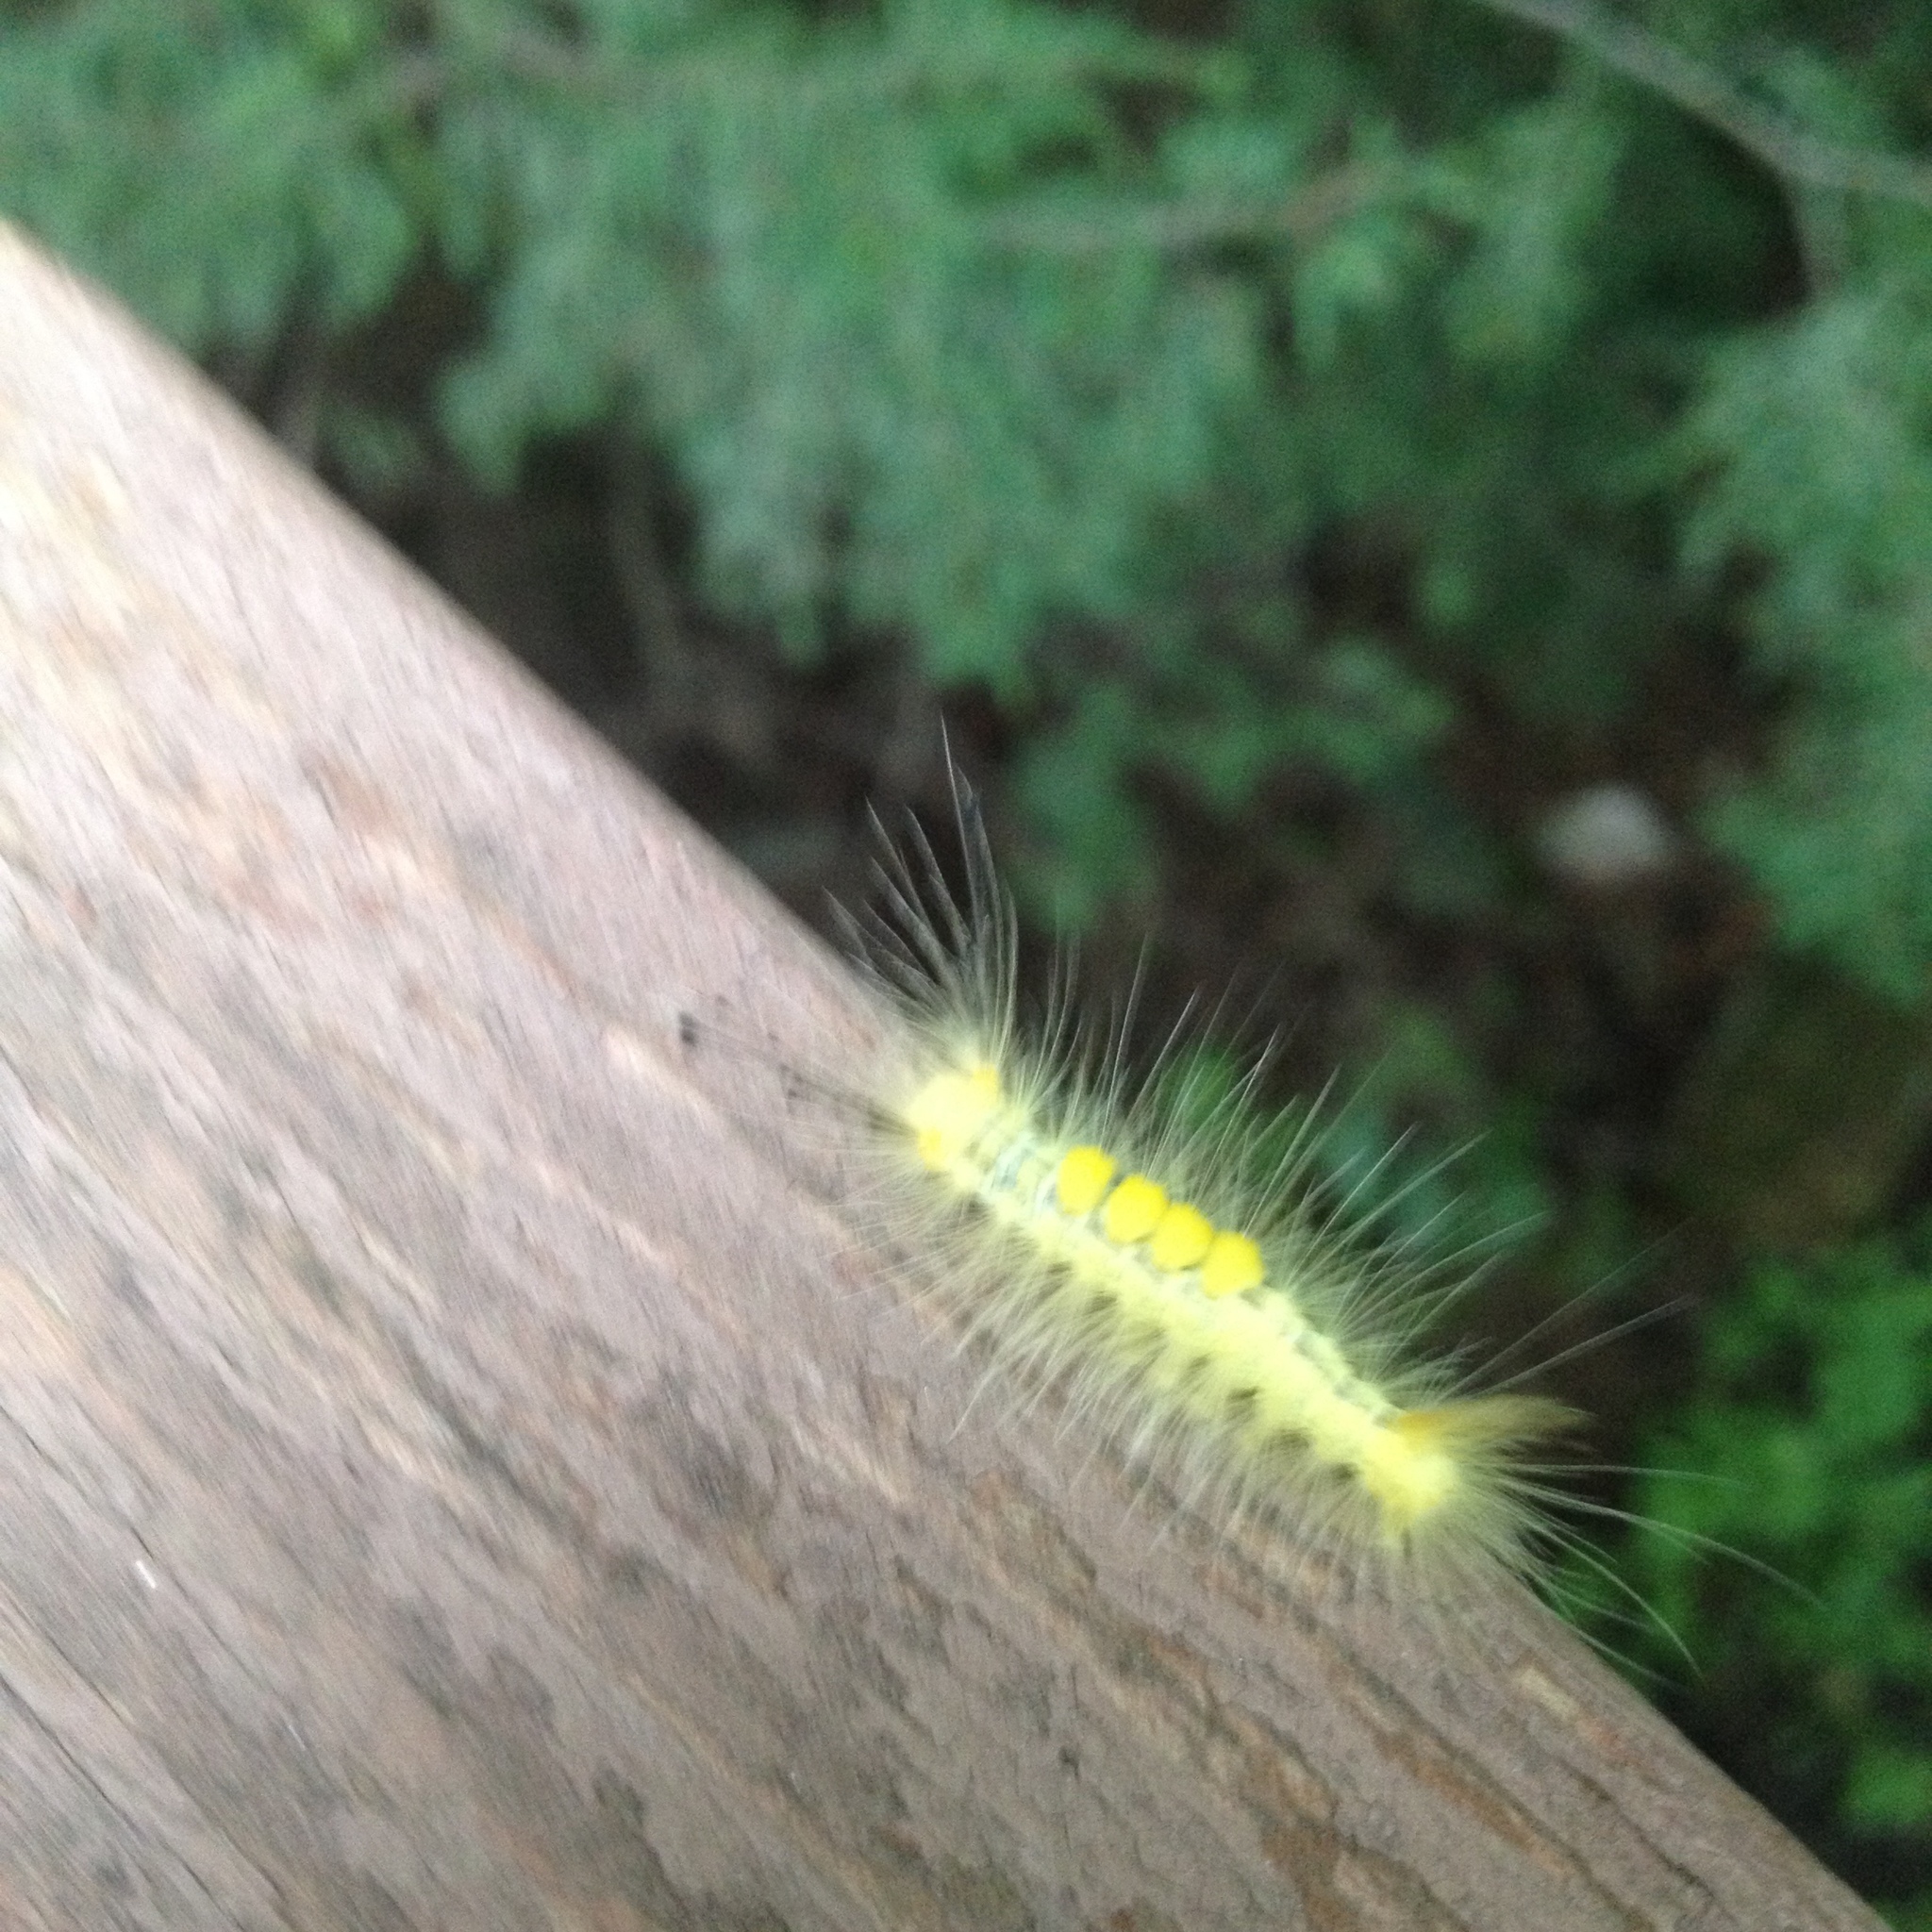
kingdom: Animalia
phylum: Arthropoda
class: Insecta
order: Lepidoptera
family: Erebidae
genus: Orgyia
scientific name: Orgyia definita
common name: Definite tussock moth
